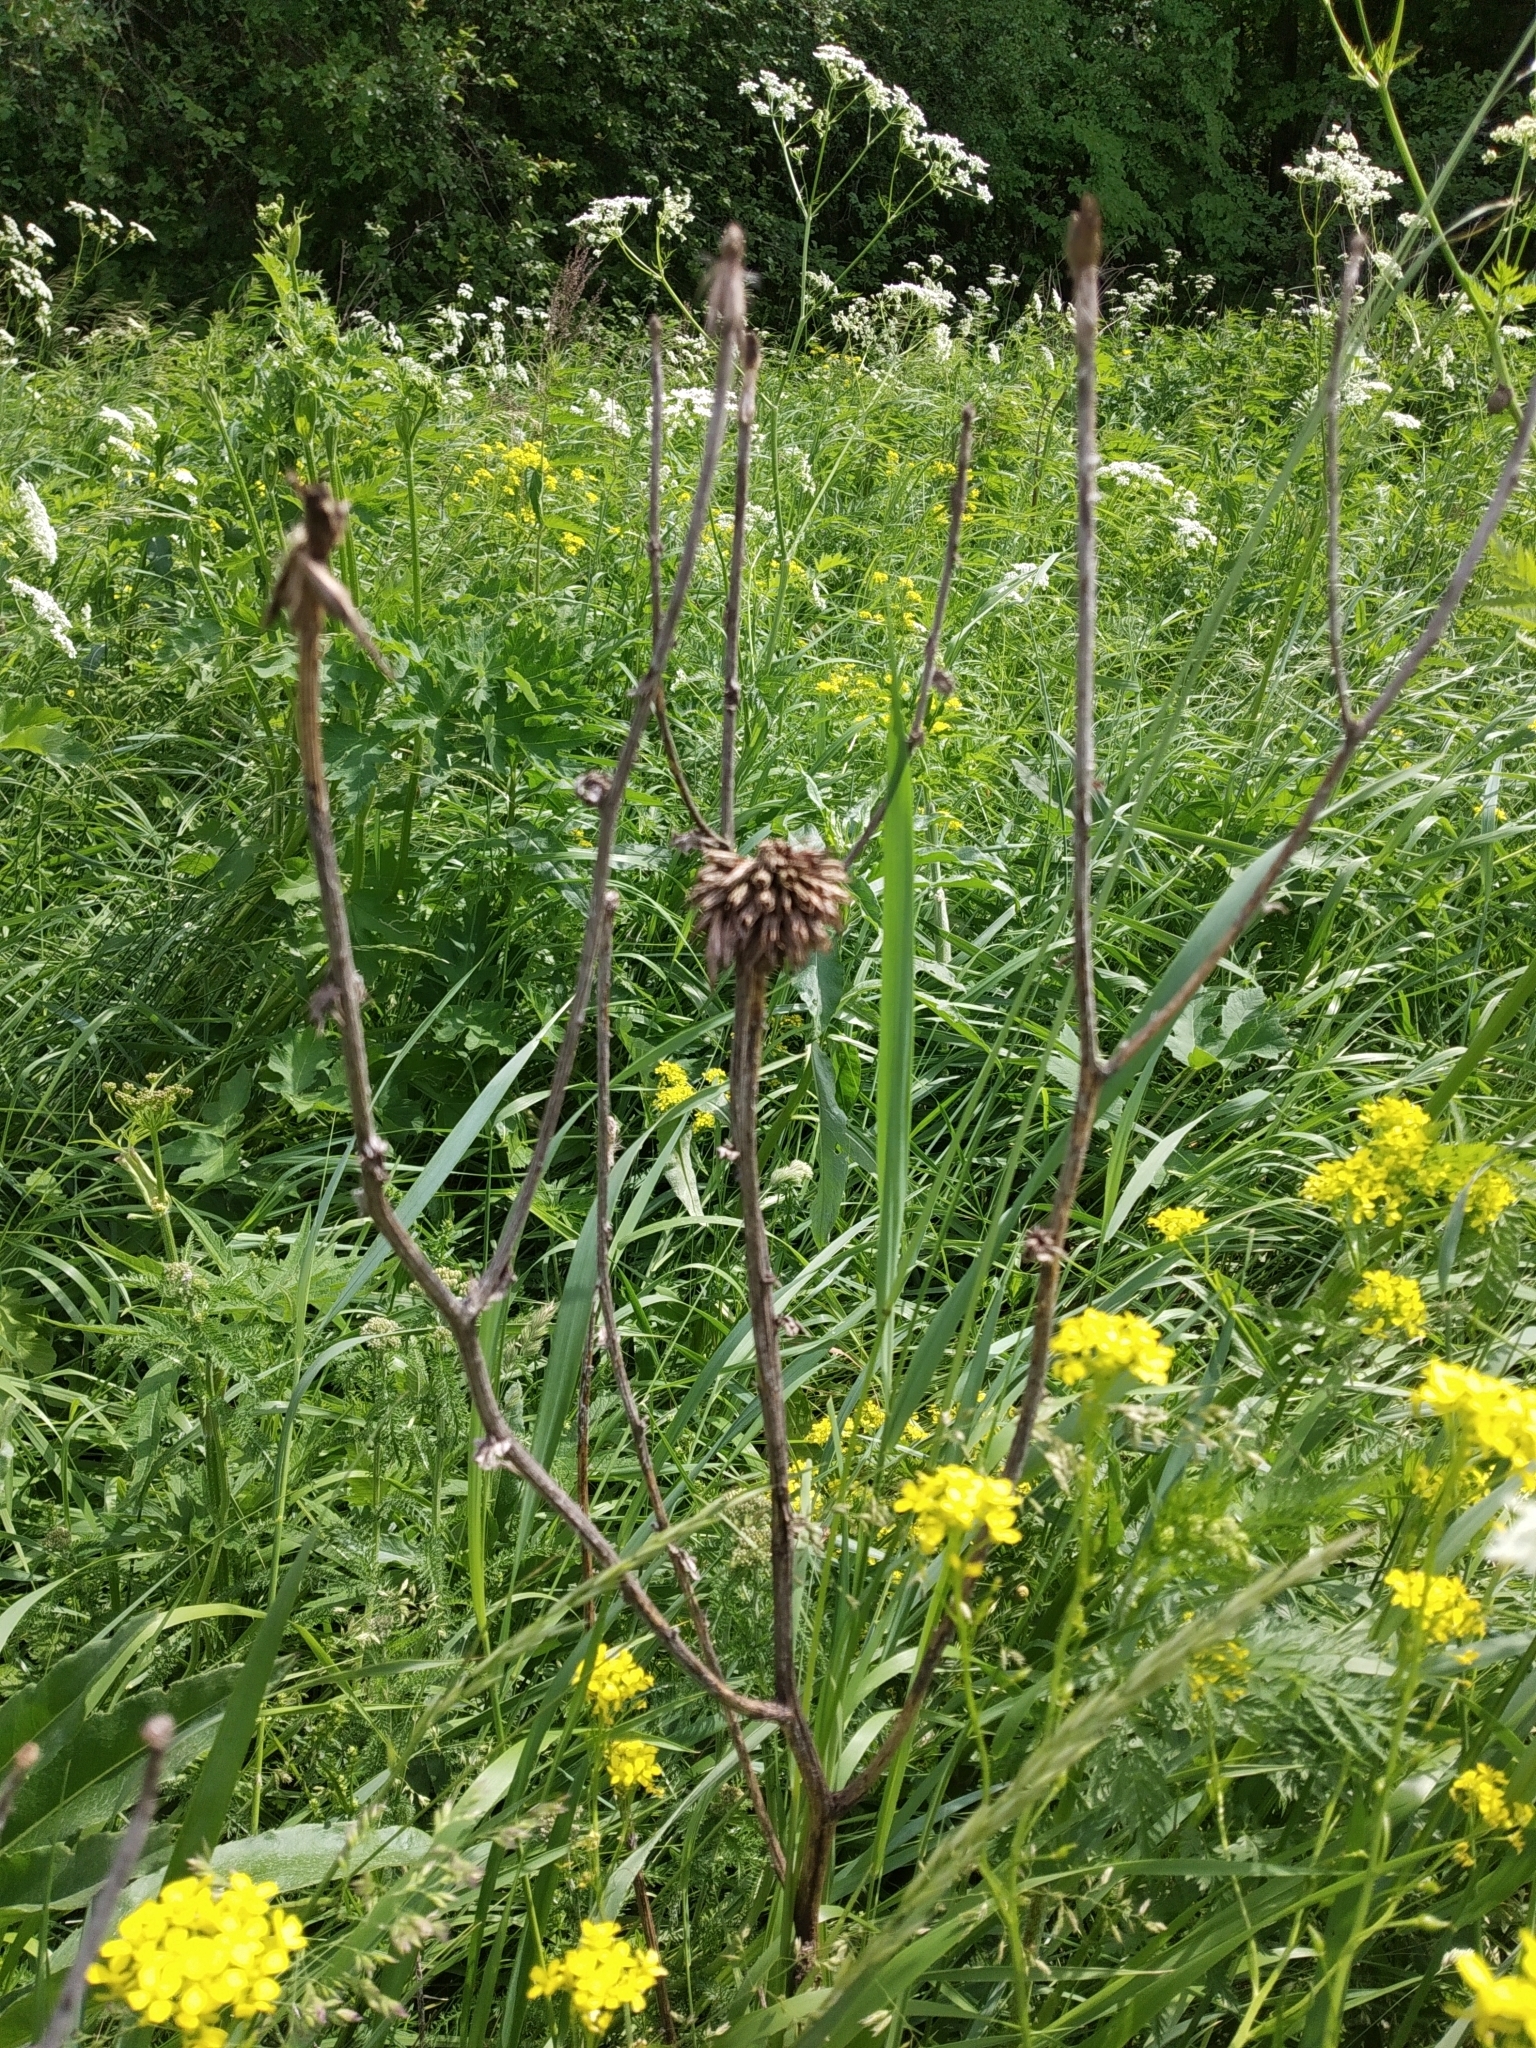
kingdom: Plantae
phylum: Tracheophyta
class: Magnoliopsida
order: Asterales
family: Asteraceae
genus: Echinops
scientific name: Echinops sphaerocephalus
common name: Glandular globe-thistle
